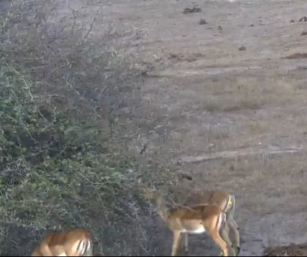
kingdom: Animalia
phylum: Chordata
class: Mammalia
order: Artiodactyla
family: Bovidae
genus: Aepyceros
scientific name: Aepyceros melampus
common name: Impala
